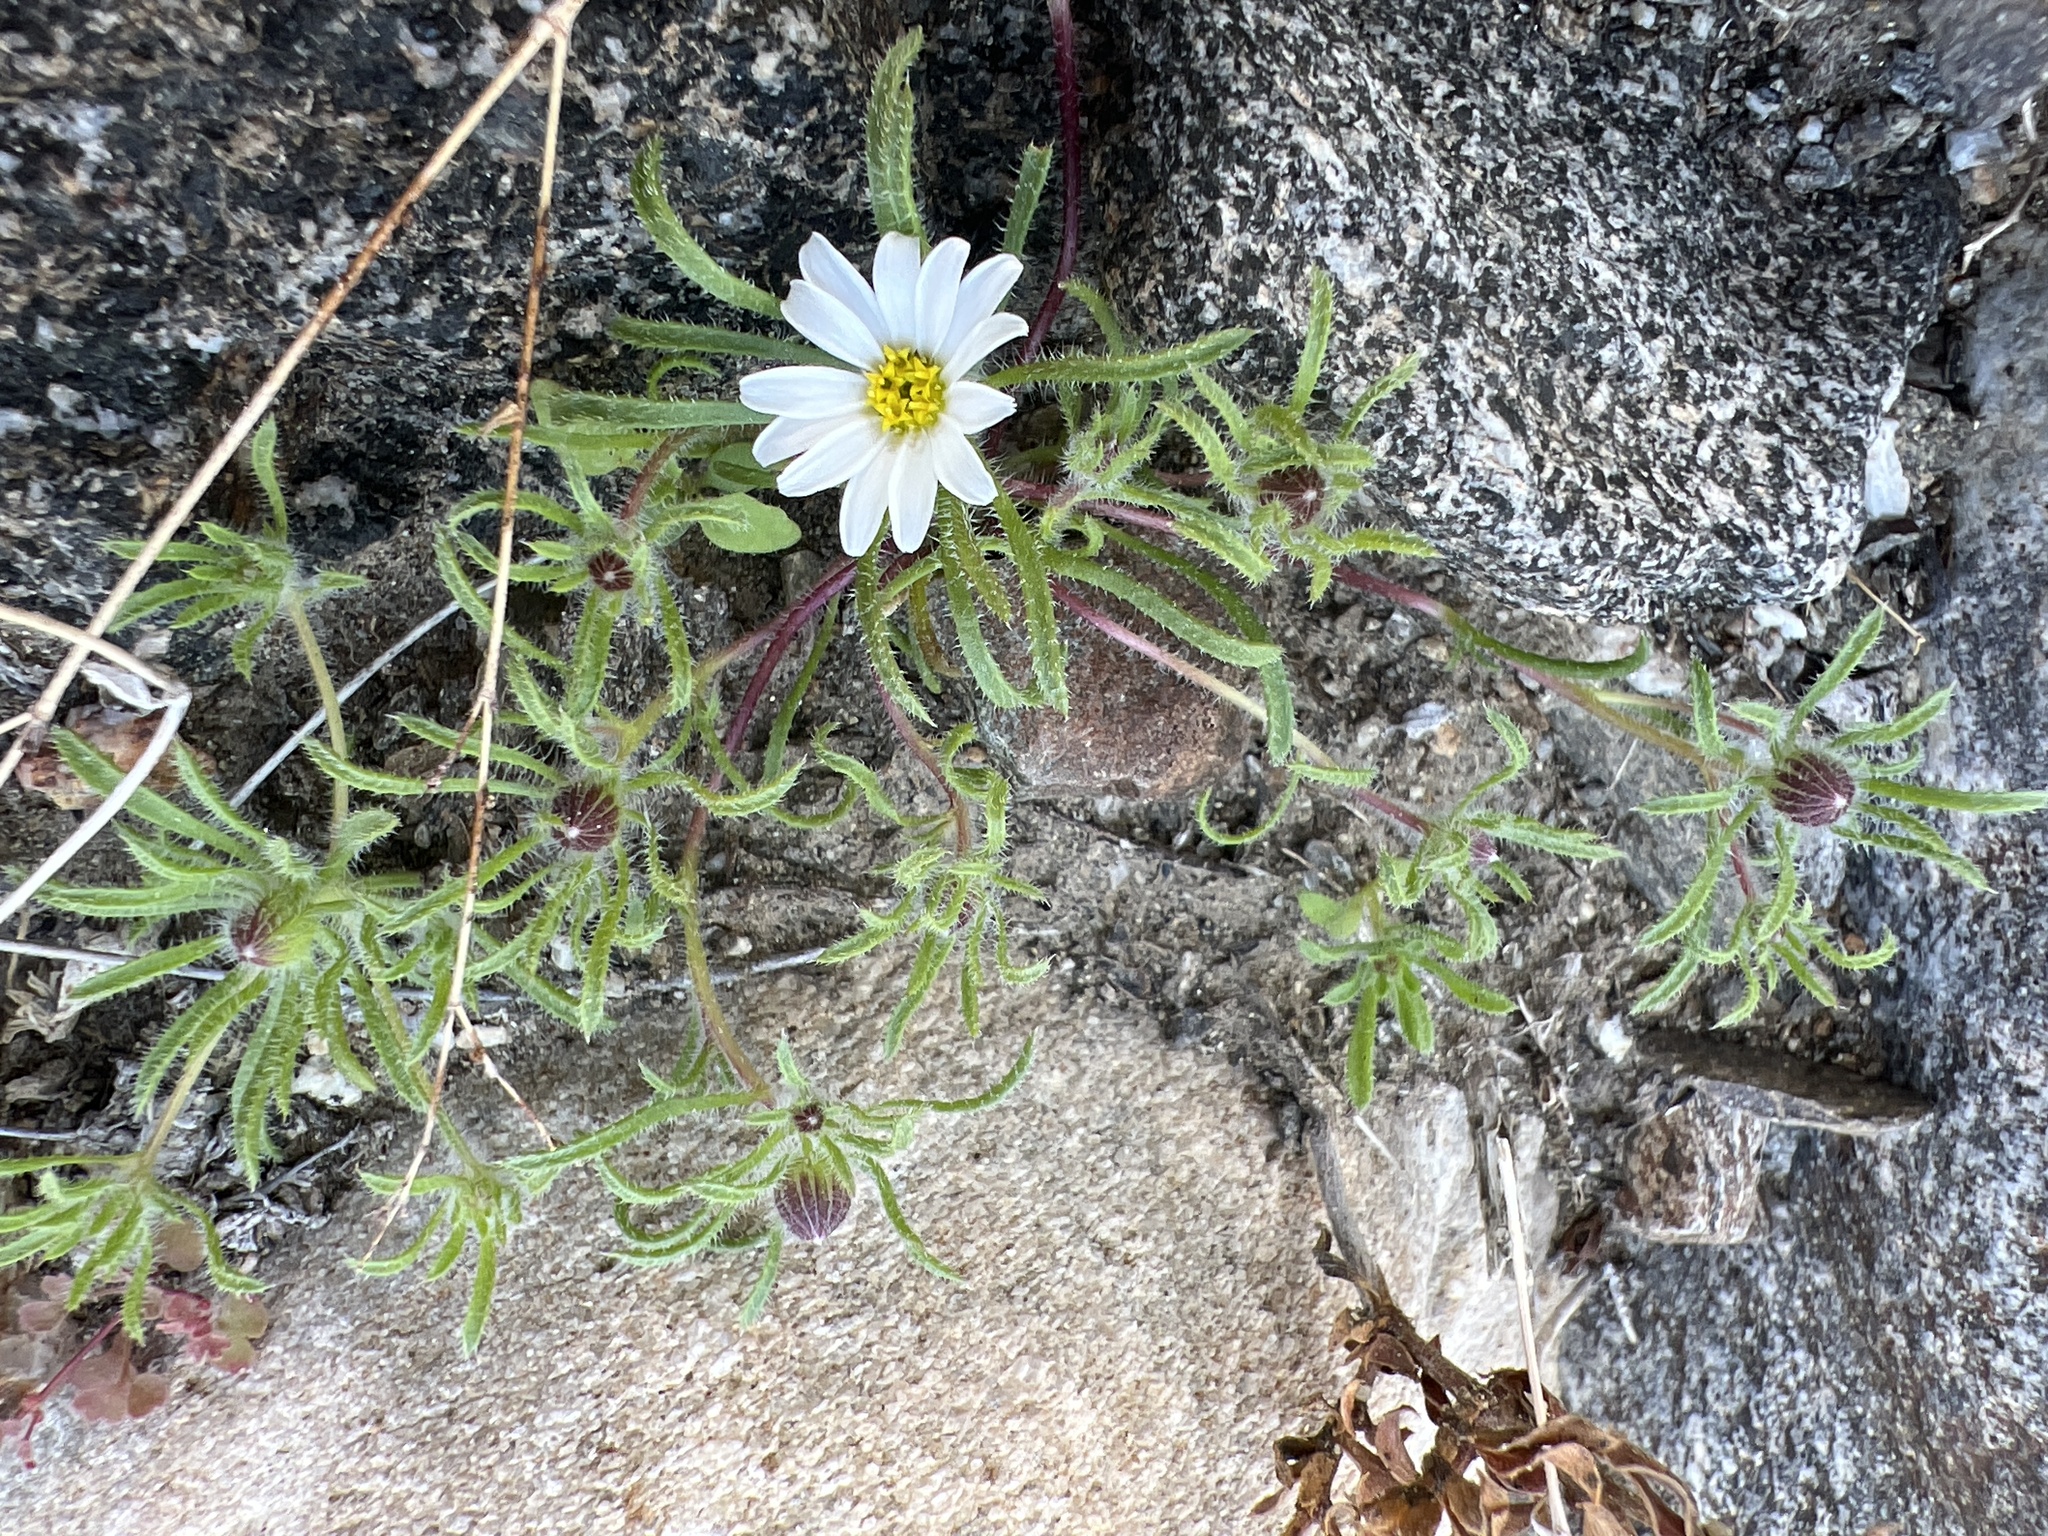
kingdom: Plantae
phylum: Tracheophyta
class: Magnoliopsida
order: Asterales
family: Asteraceae
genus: Monoptilon
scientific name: Monoptilon bellioides
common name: Bristly desertstar
